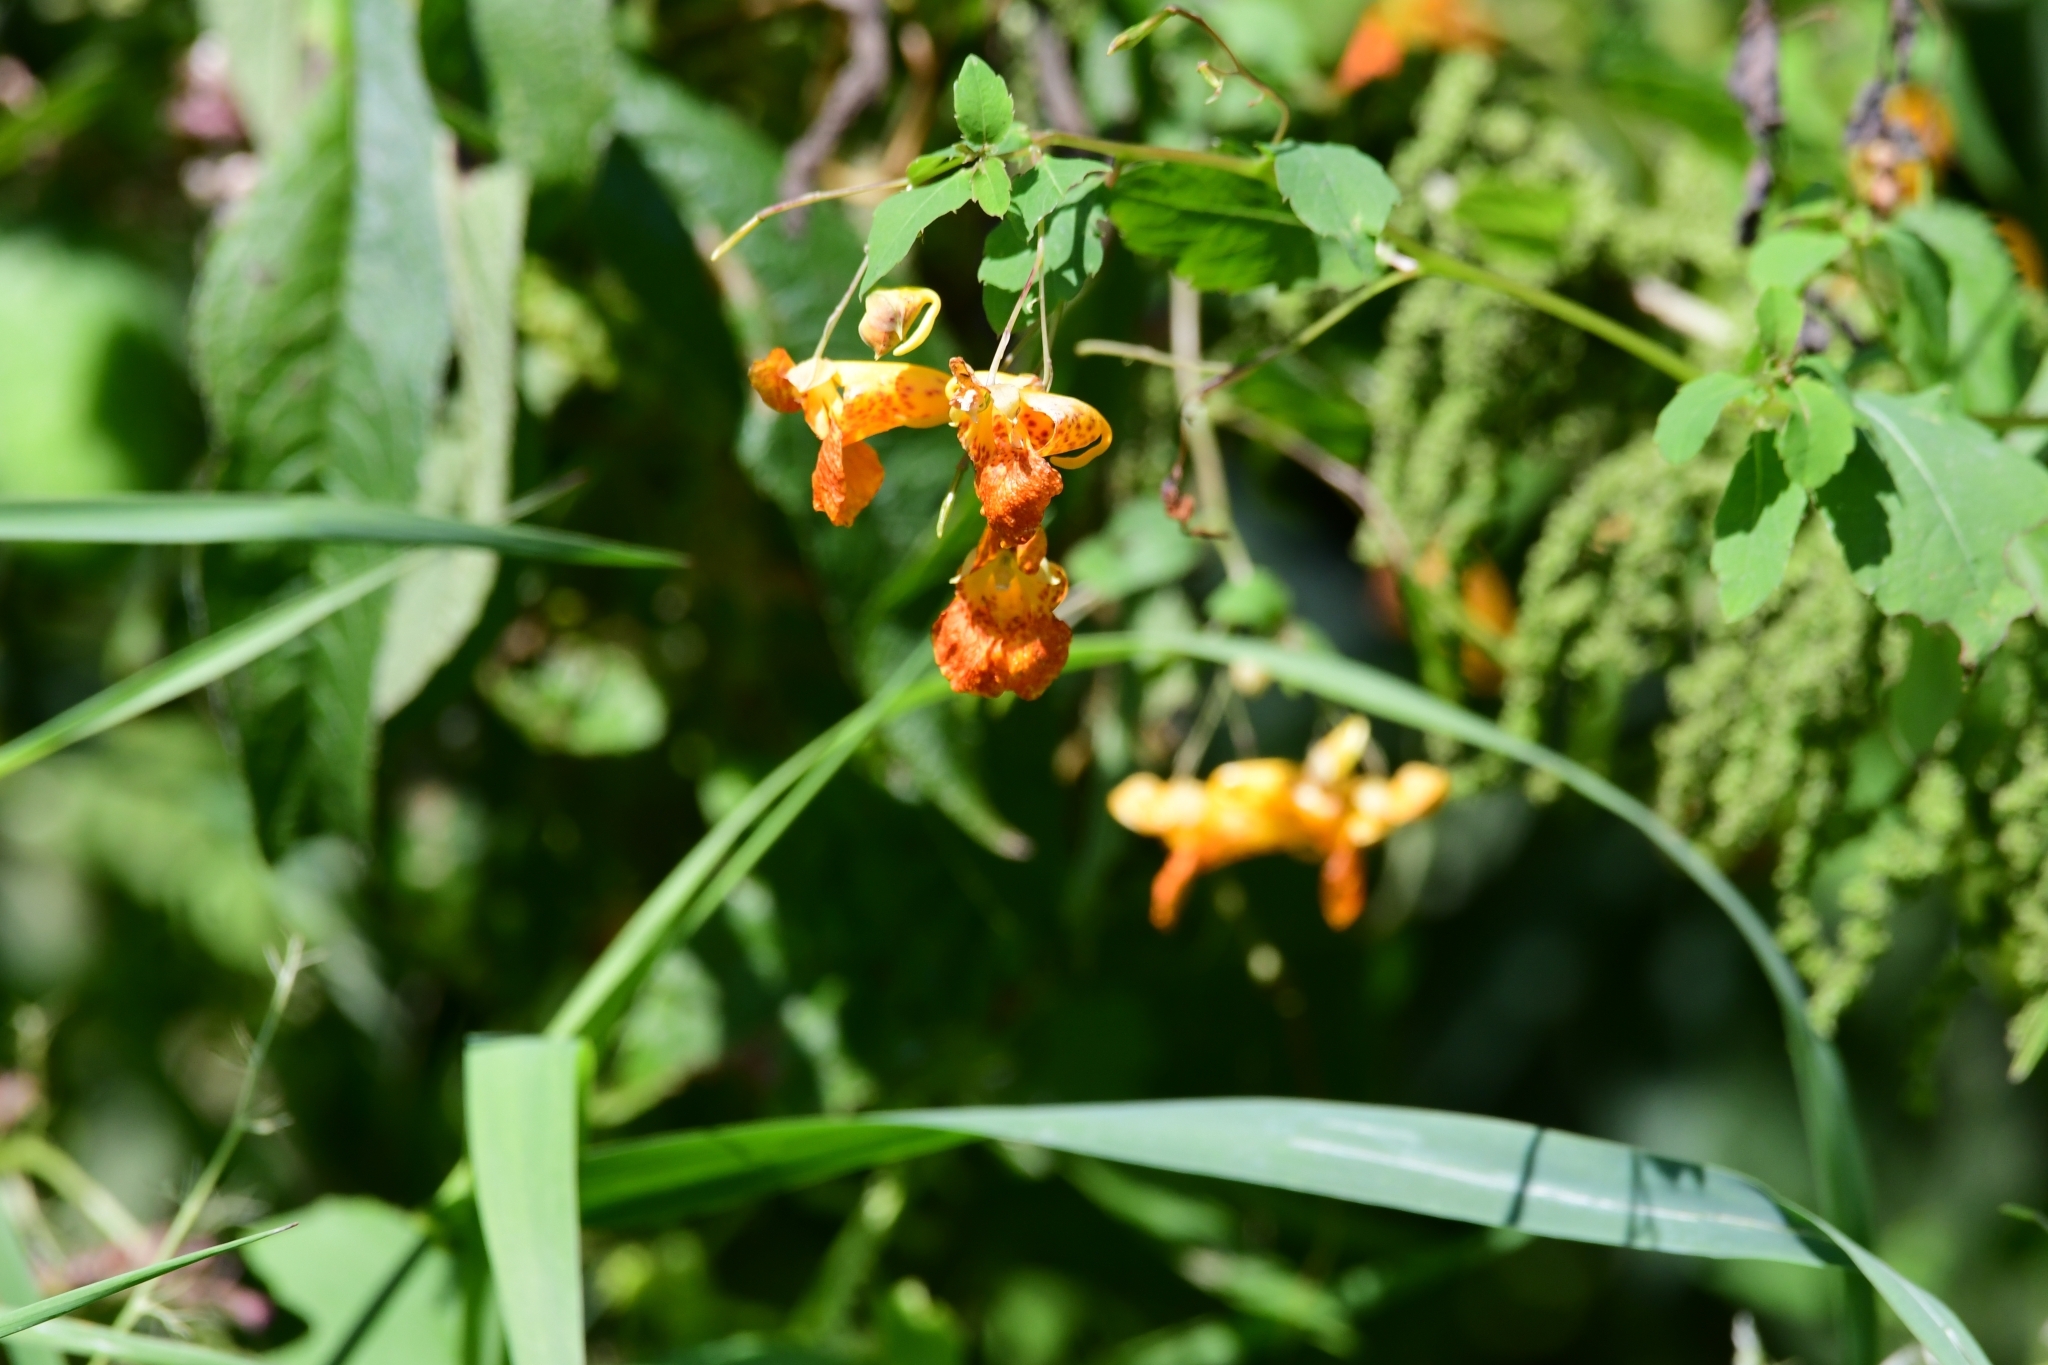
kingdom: Plantae
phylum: Tracheophyta
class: Magnoliopsida
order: Ericales
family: Balsaminaceae
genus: Impatiens
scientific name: Impatiens capensis
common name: Orange balsam
